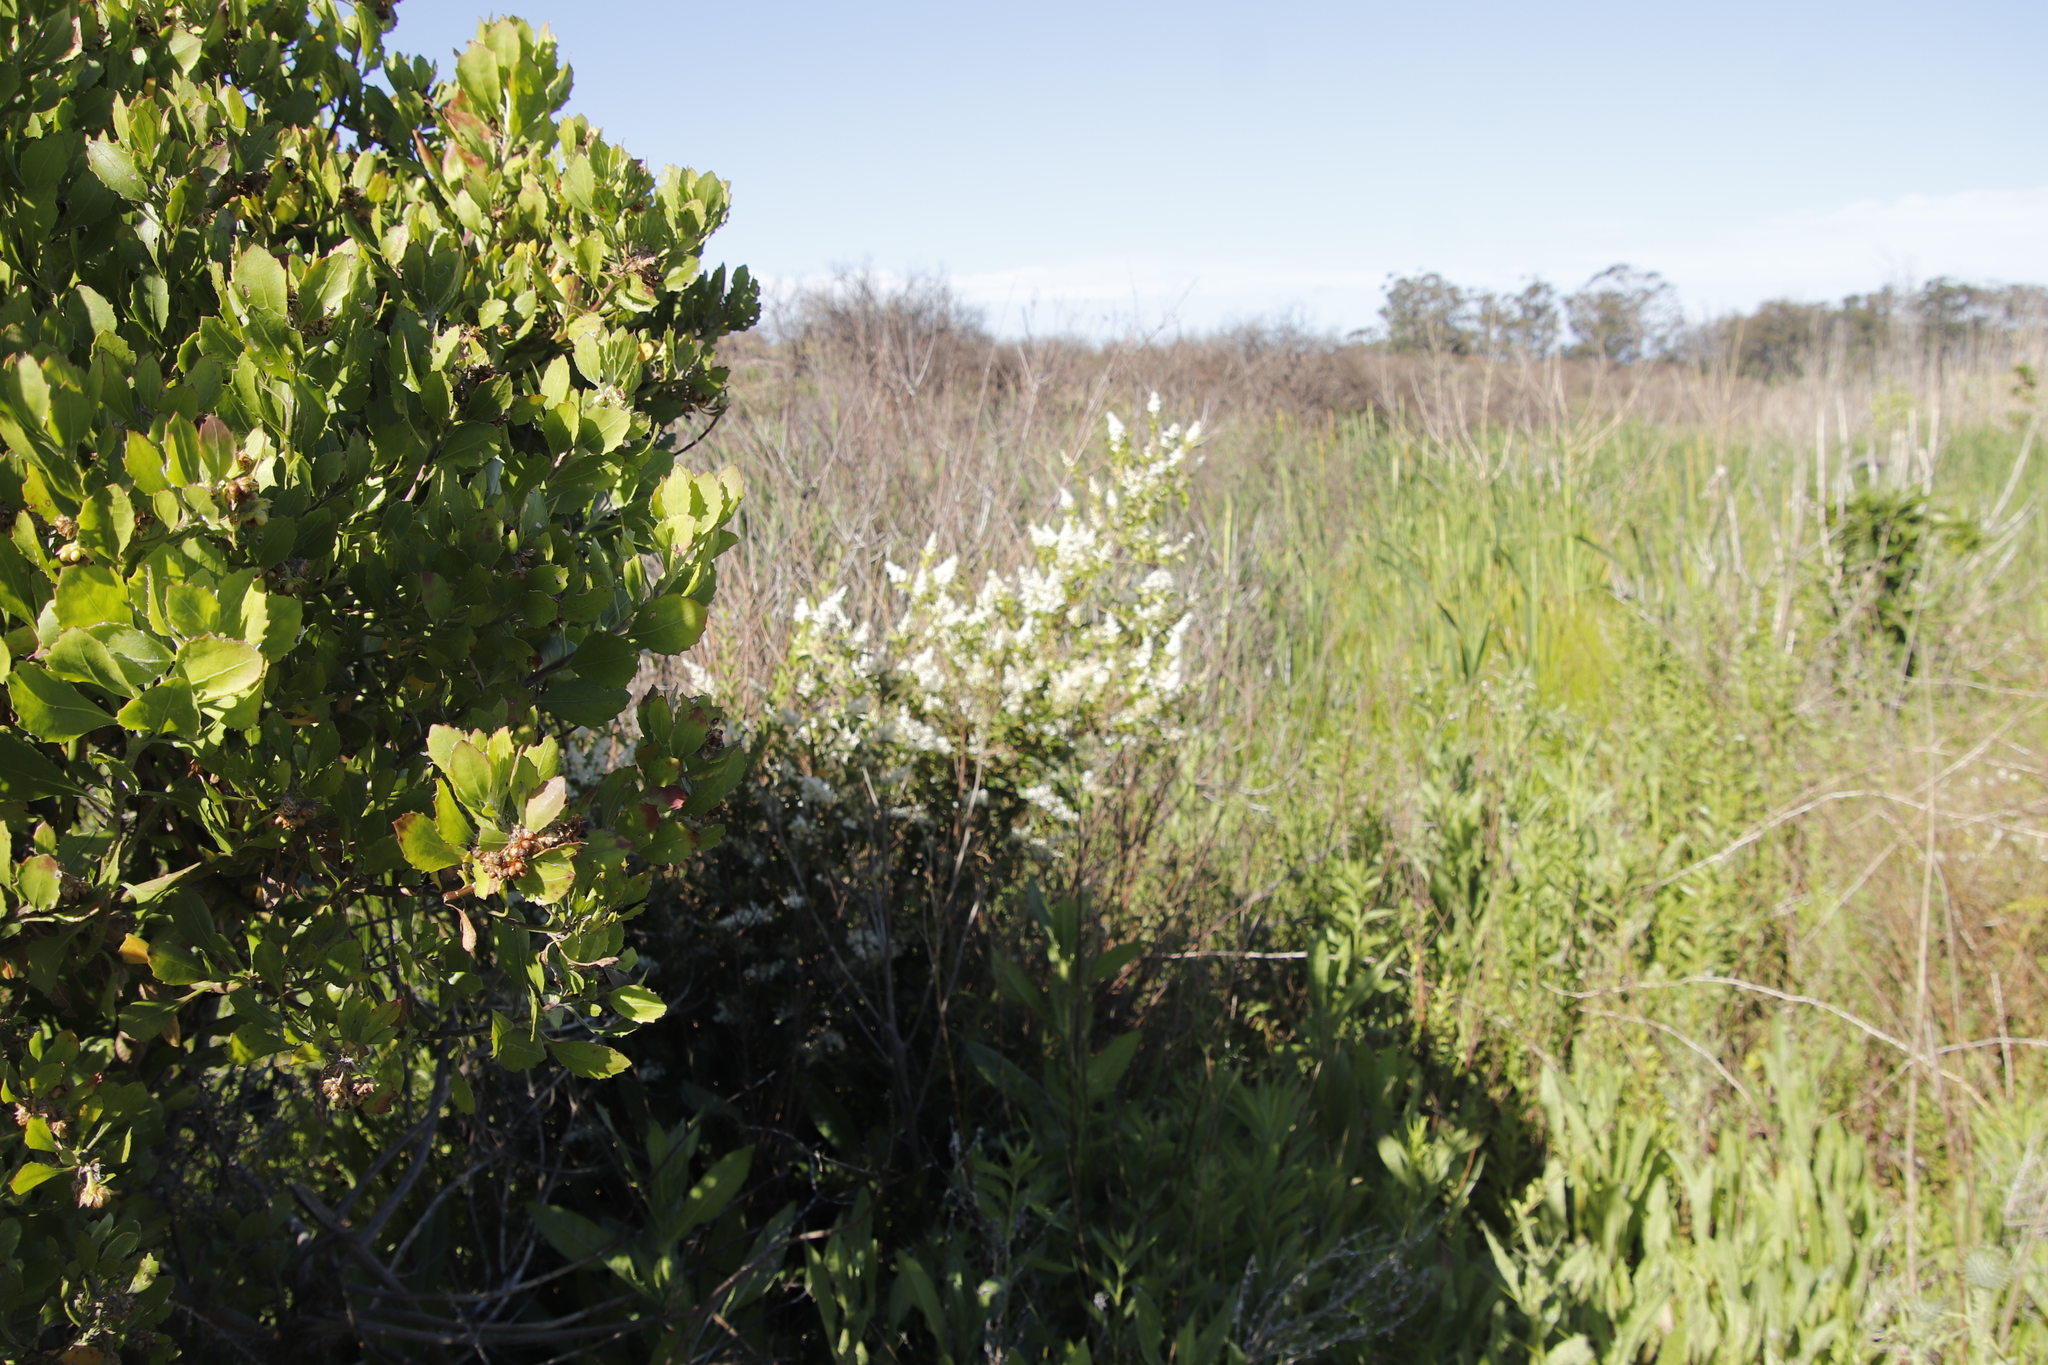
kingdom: Plantae
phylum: Tracheophyta
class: Magnoliopsida
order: Lamiales
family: Oleaceae
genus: Ligustrum
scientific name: Ligustrum sinense
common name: Chinese privet
